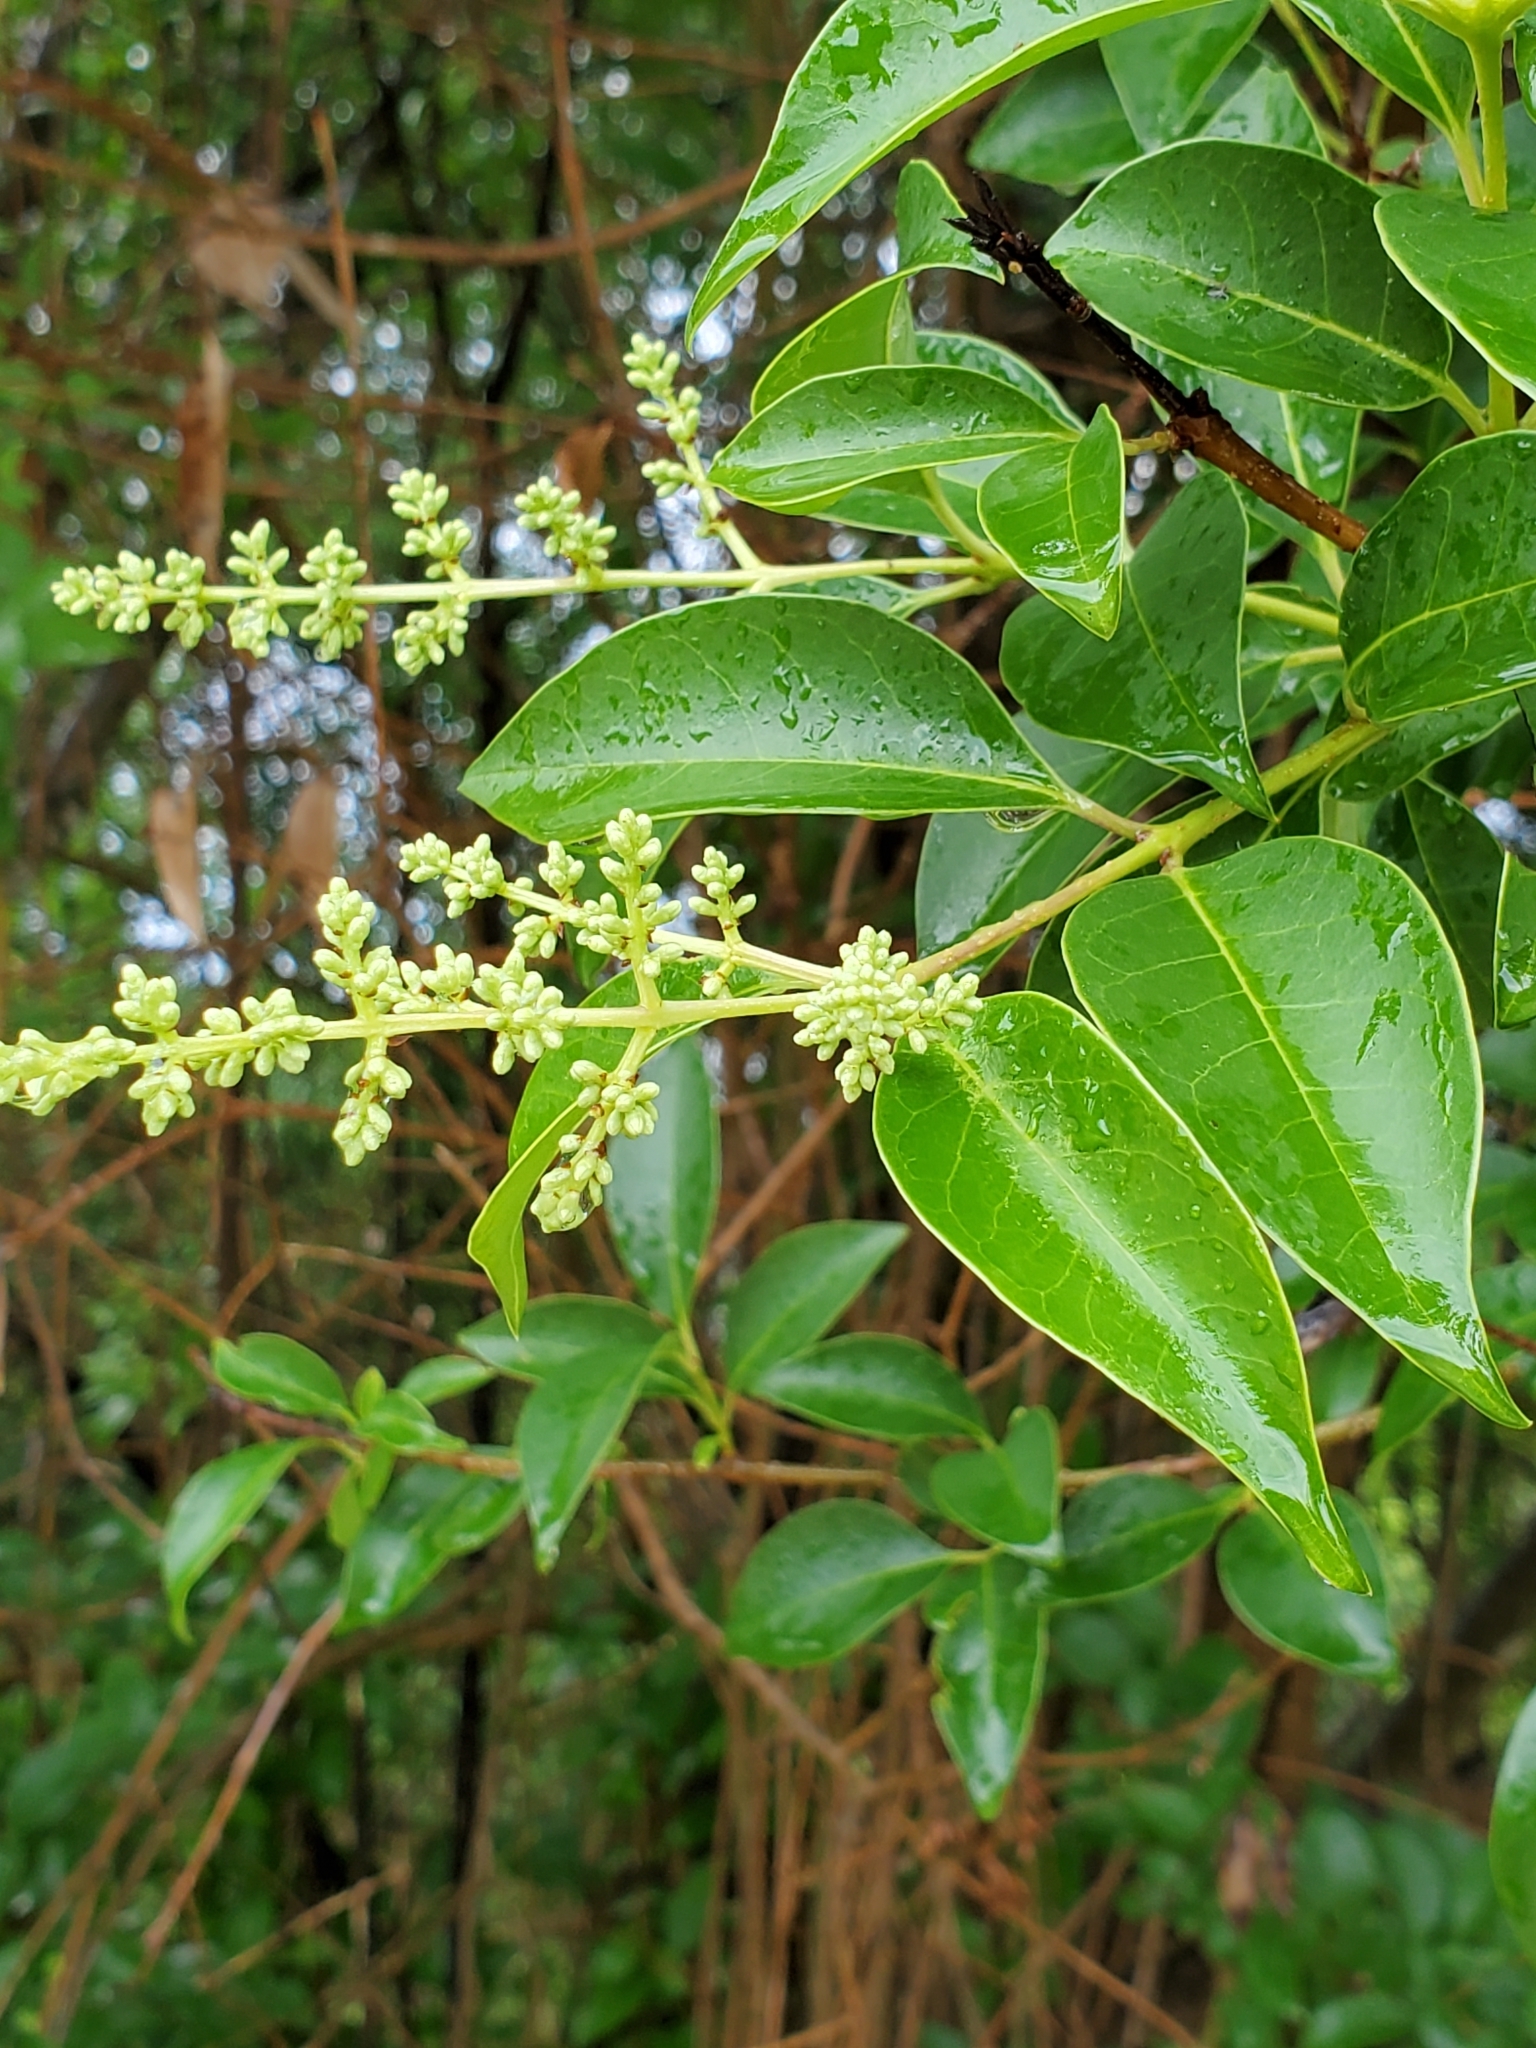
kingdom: Plantae
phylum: Tracheophyta
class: Magnoliopsida
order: Lamiales
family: Oleaceae
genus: Ligustrum
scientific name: Ligustrum lucidum
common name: Glossy privet
